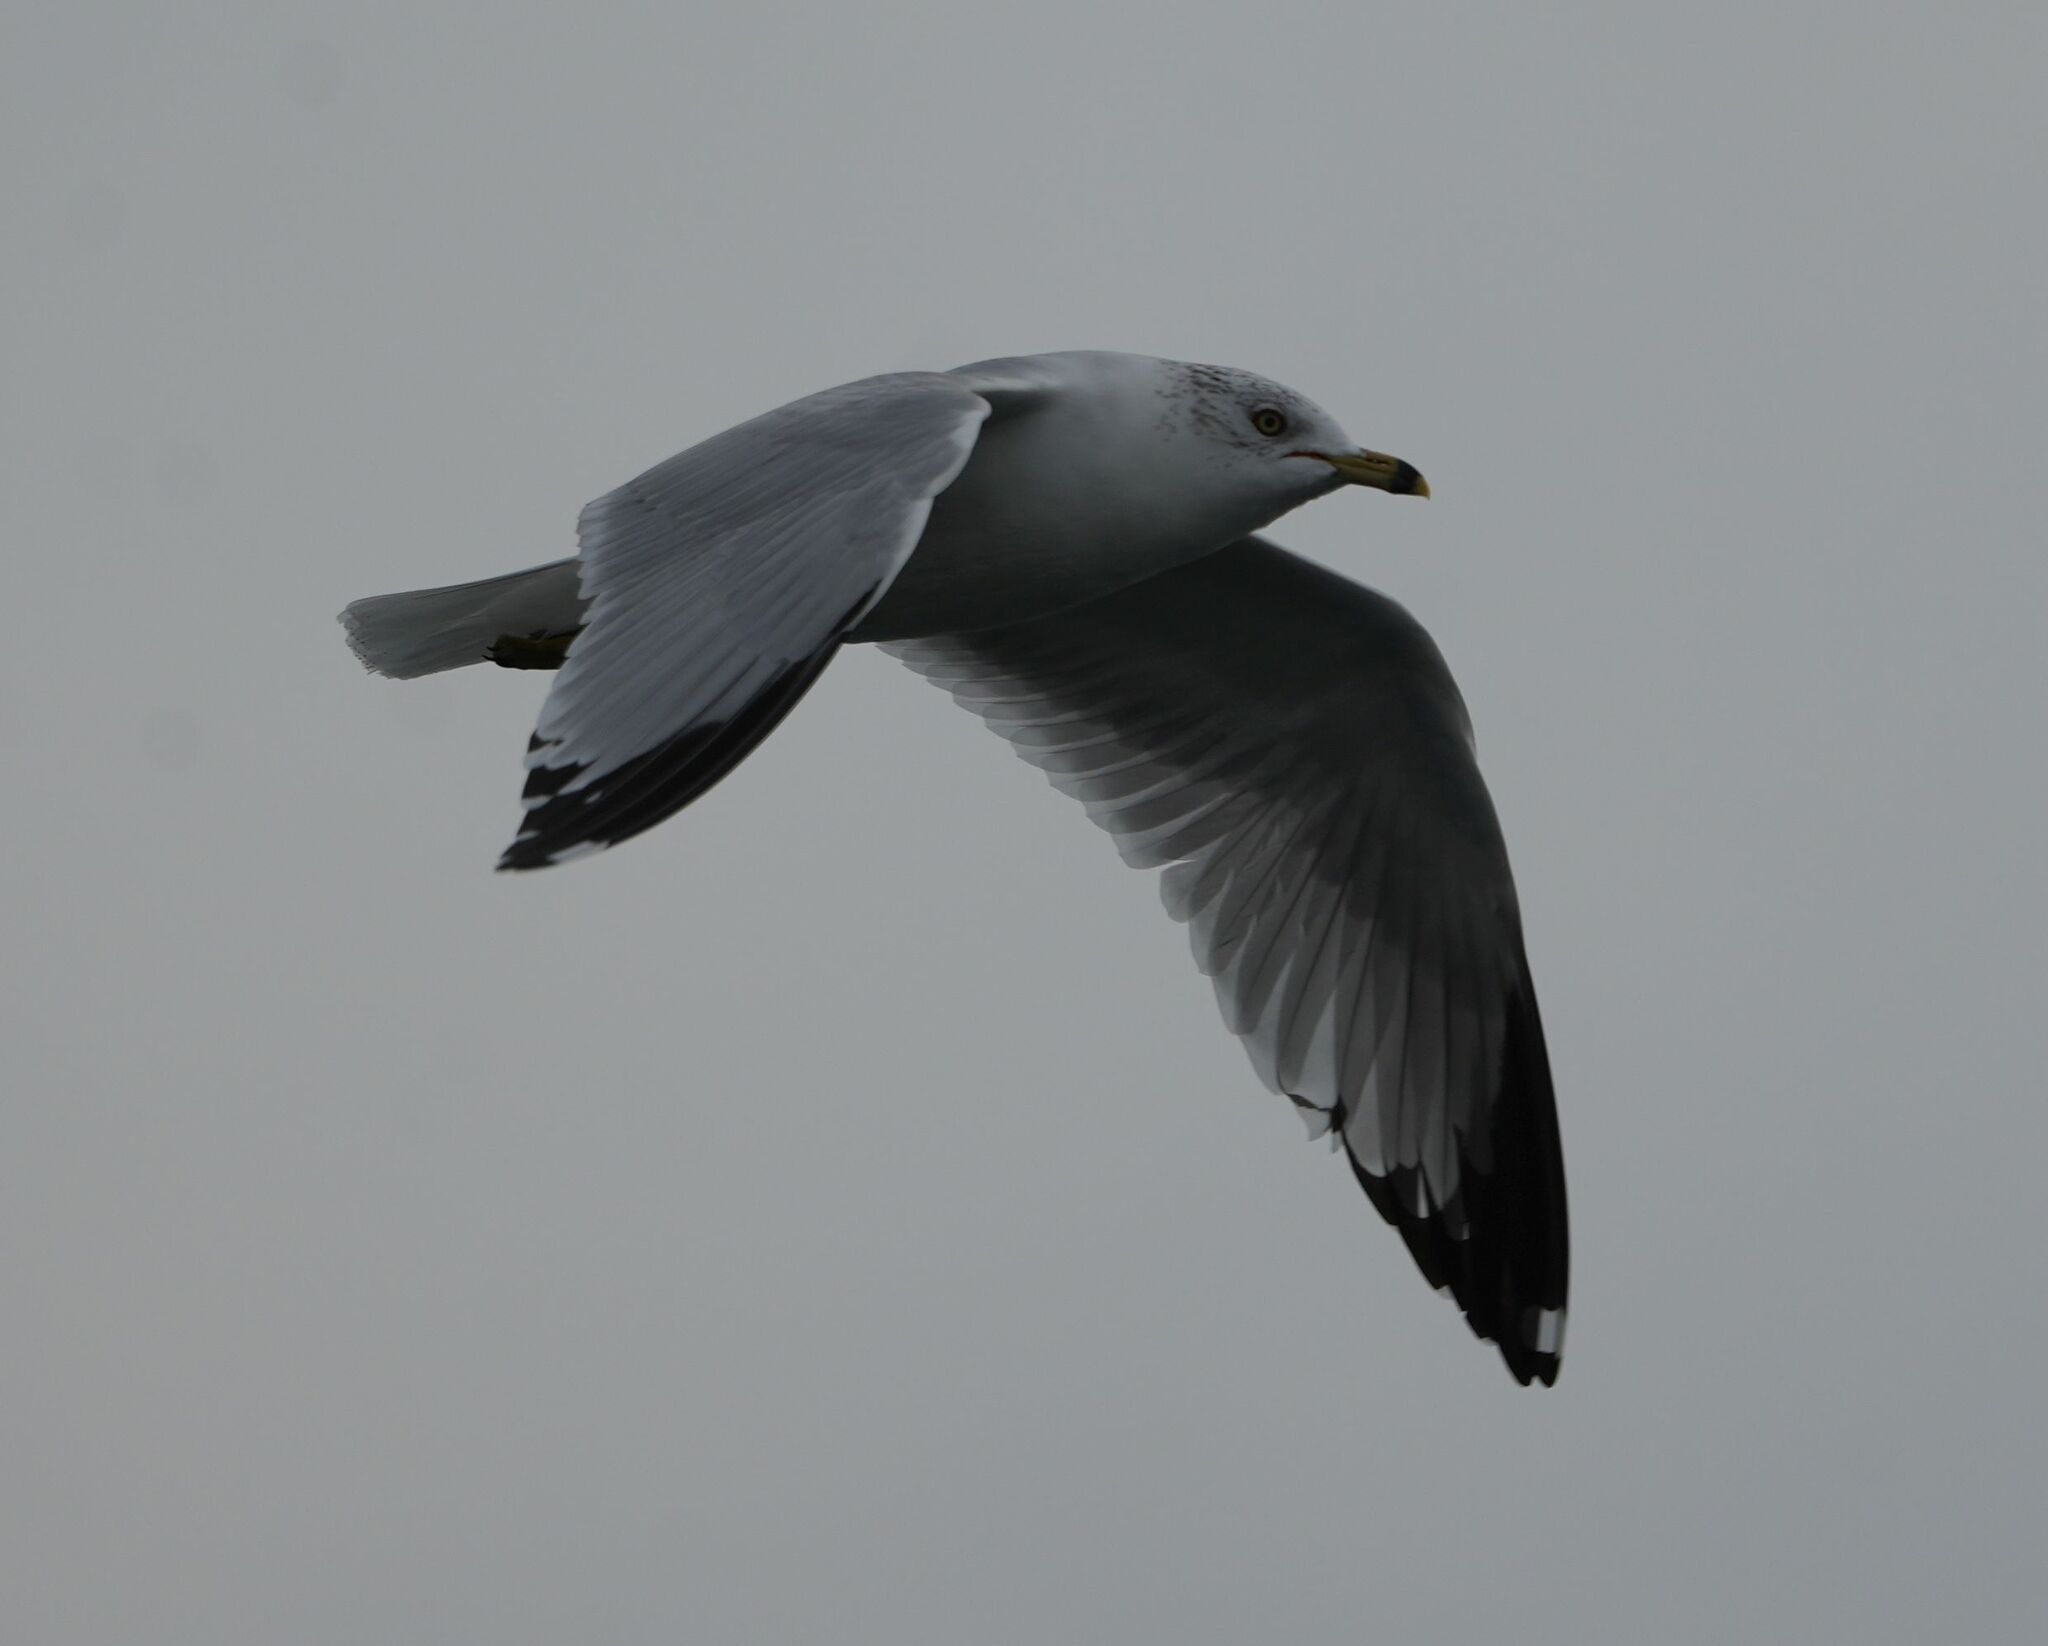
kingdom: Animalia
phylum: Chordata
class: Aves
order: Charadriiformes
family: Laridae
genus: Larus
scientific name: Larus delawarensis
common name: Ring-billed gull
